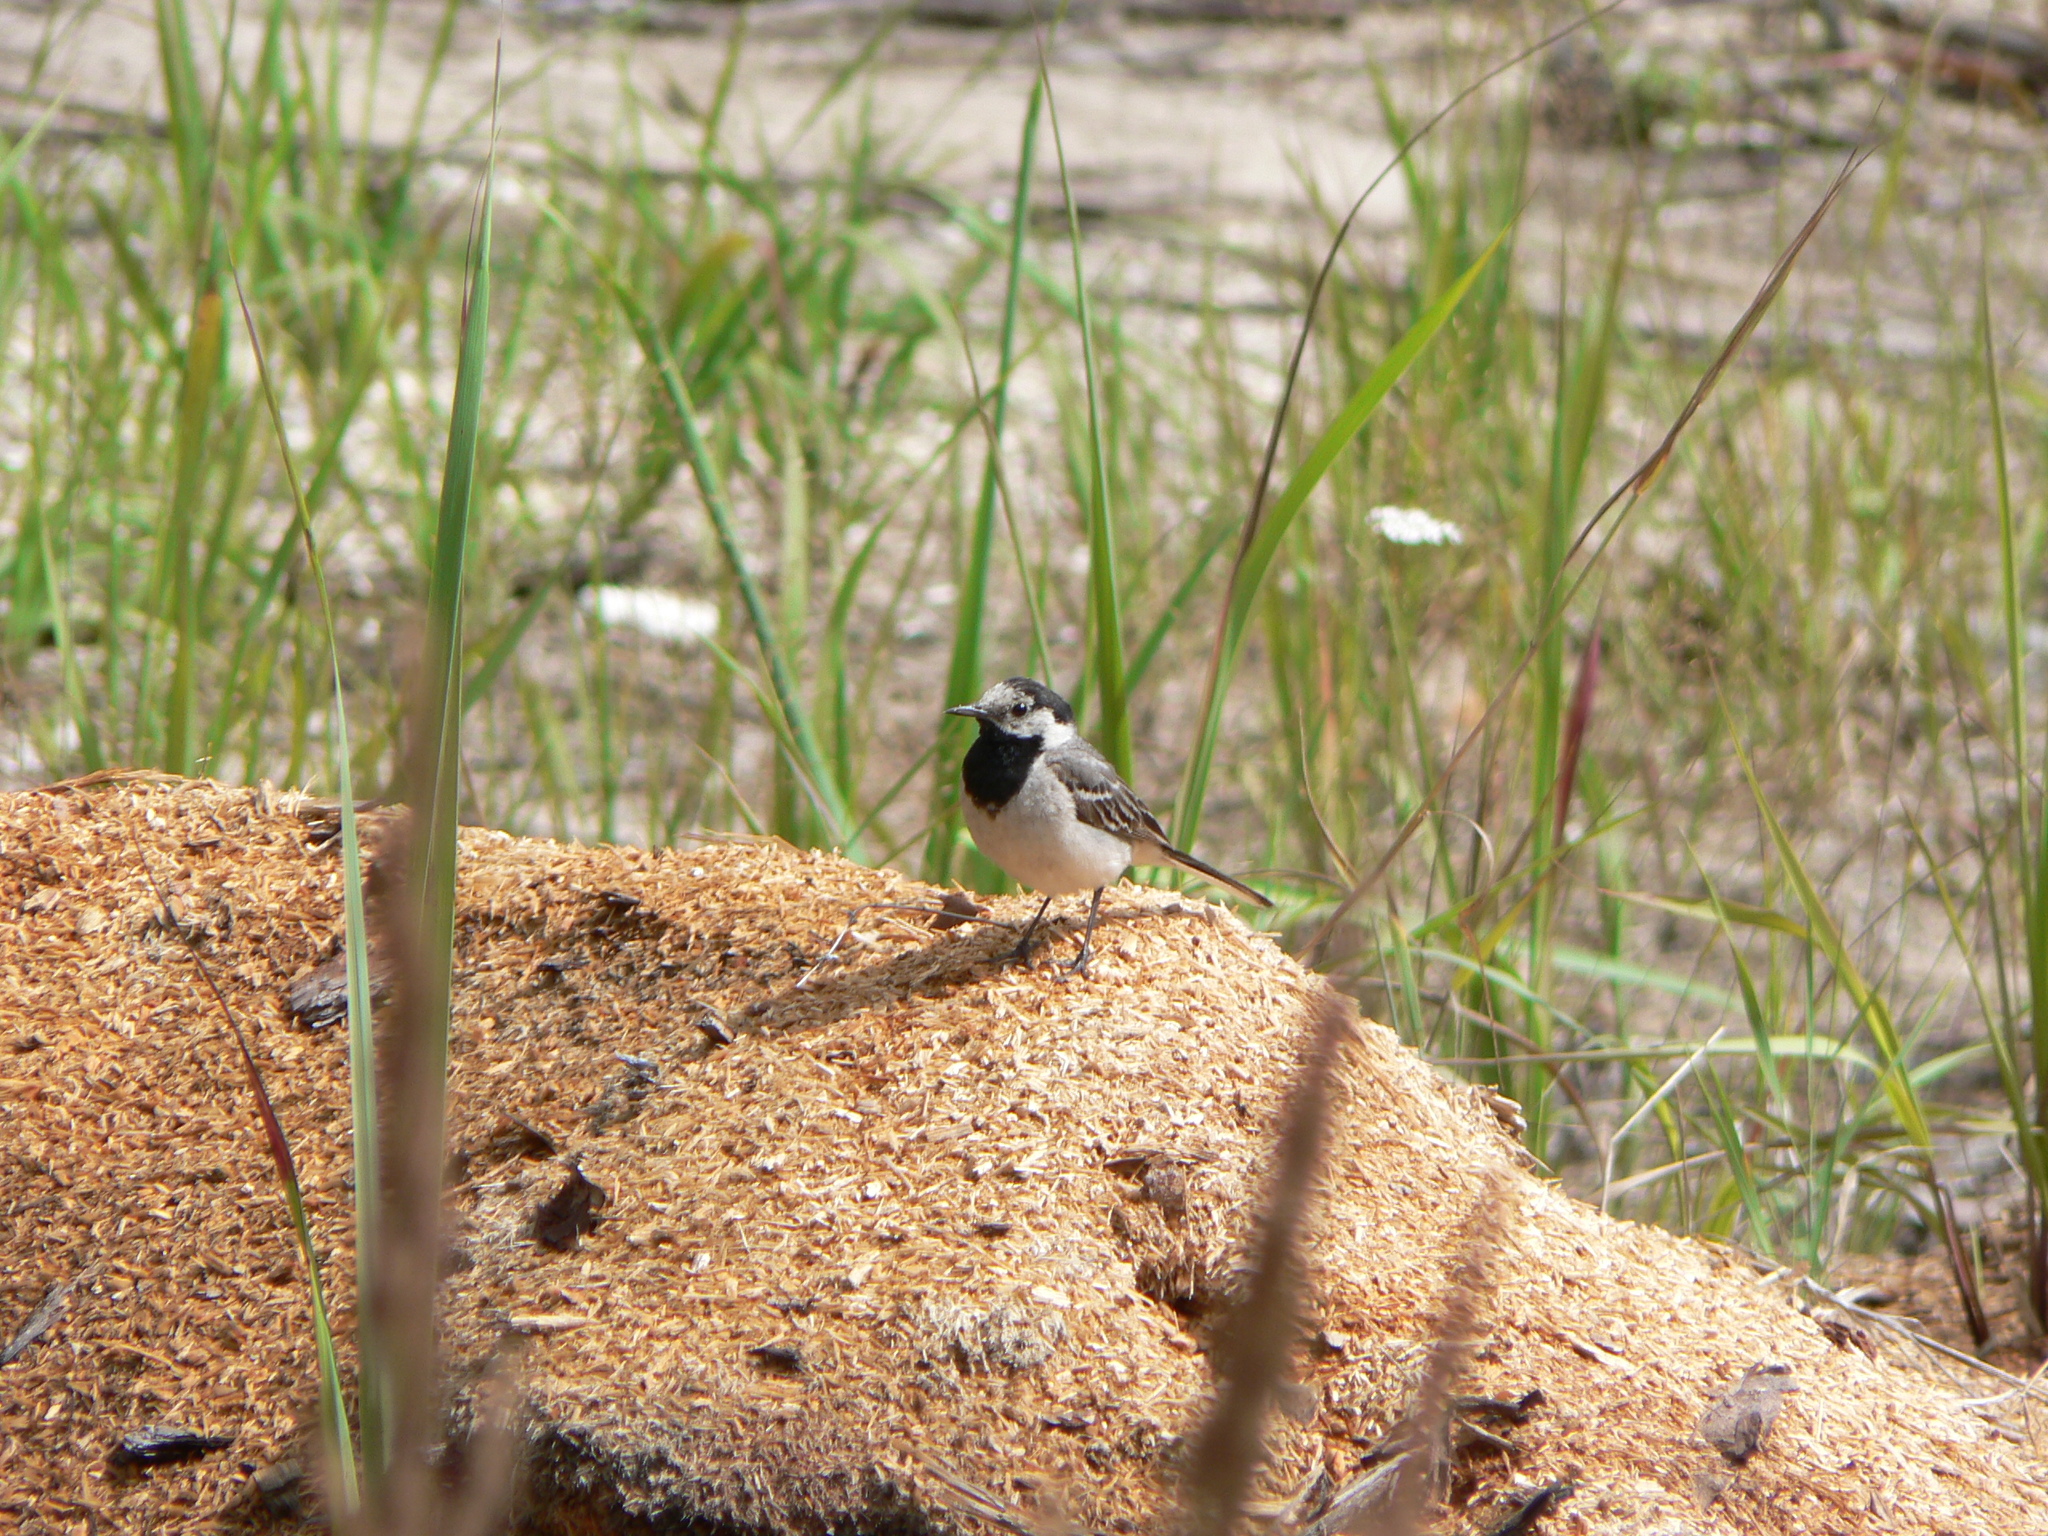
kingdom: Animalia
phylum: Chordata
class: Aves
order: Passeriformes
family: Motacillidae
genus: Motacilla
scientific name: Motacilla alba
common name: White wagtail
